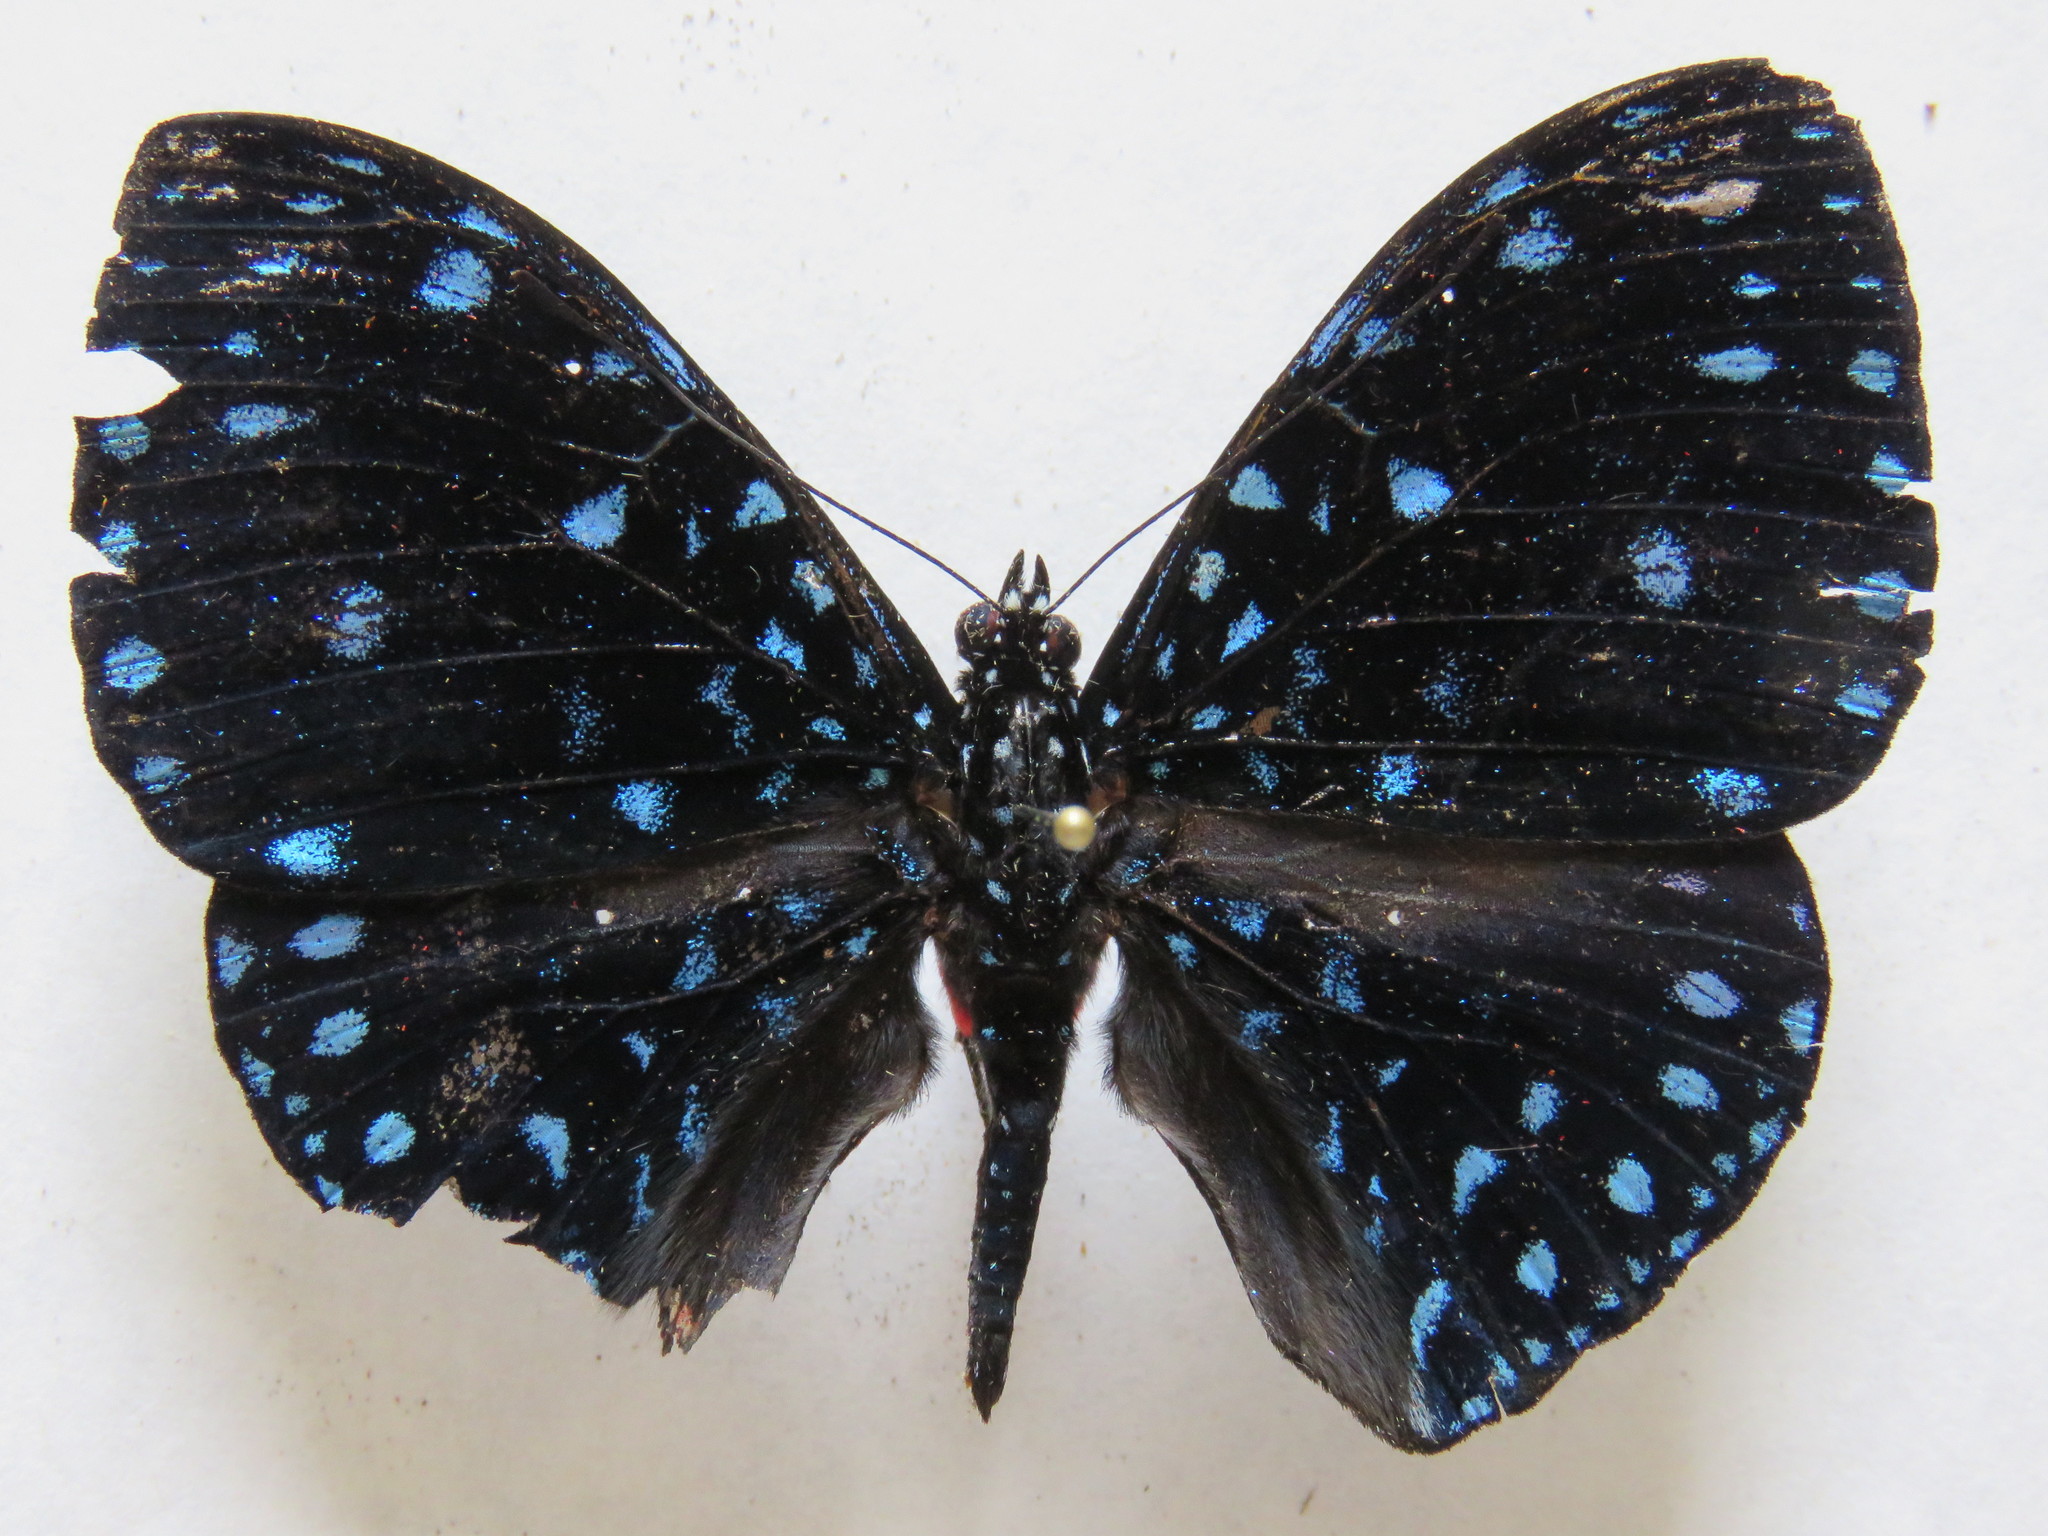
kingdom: Animalia
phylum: Arthropoda
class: Insecta
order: Lepidoptera
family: Nymphalidae
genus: Hamadryas
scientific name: Hamadryas arethusa
